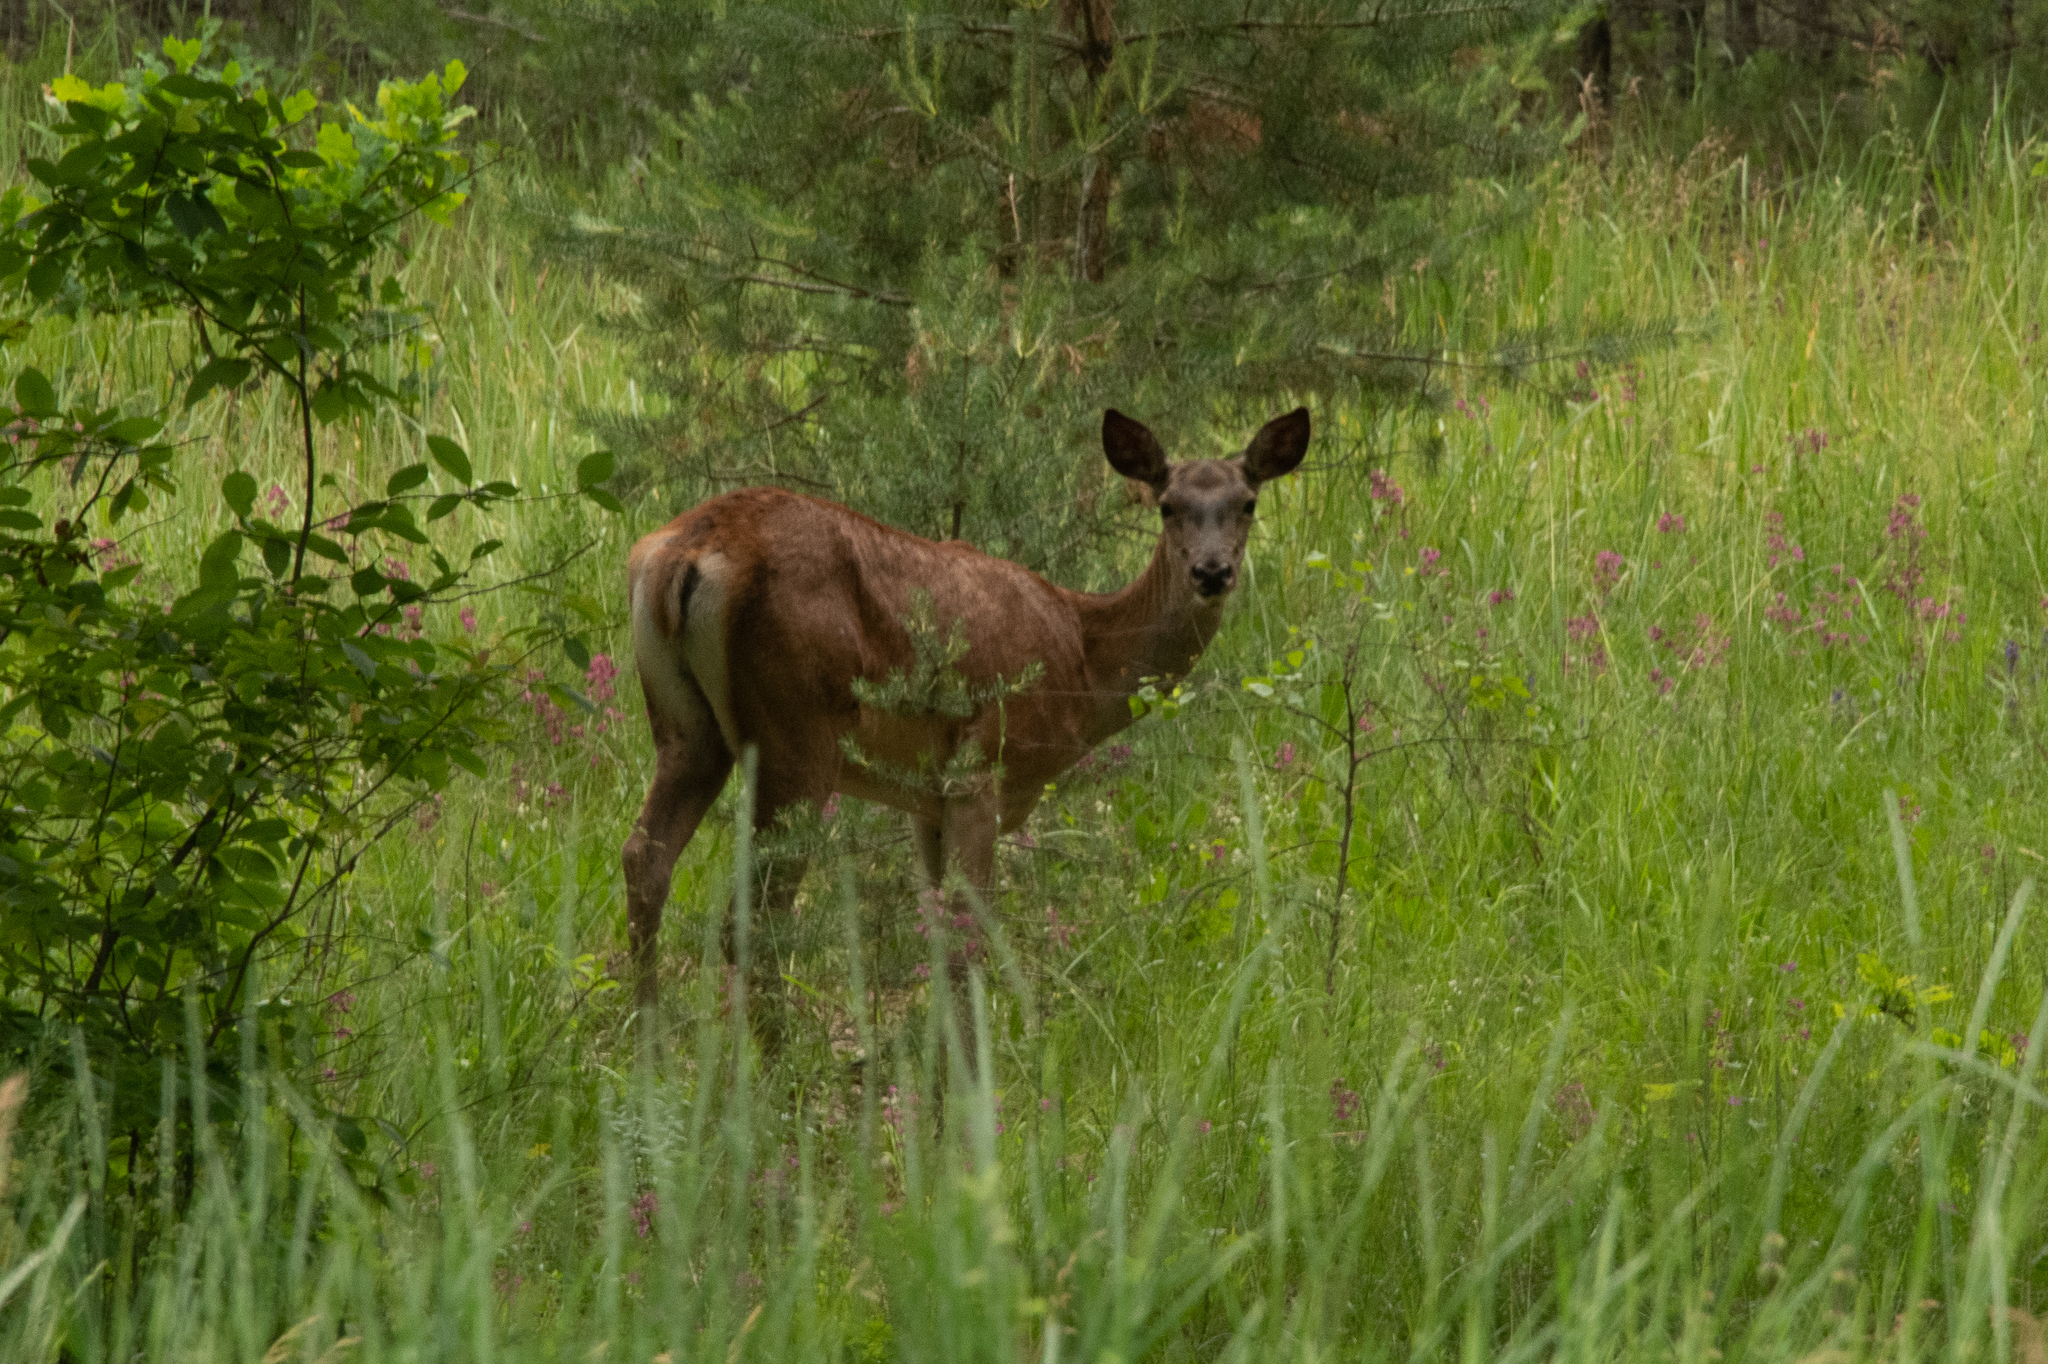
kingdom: Animalia
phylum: Chordata
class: Mammalia
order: Artiodactyla
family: Cervidae
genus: Cervus
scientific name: Cervus elaphus
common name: Red deer
